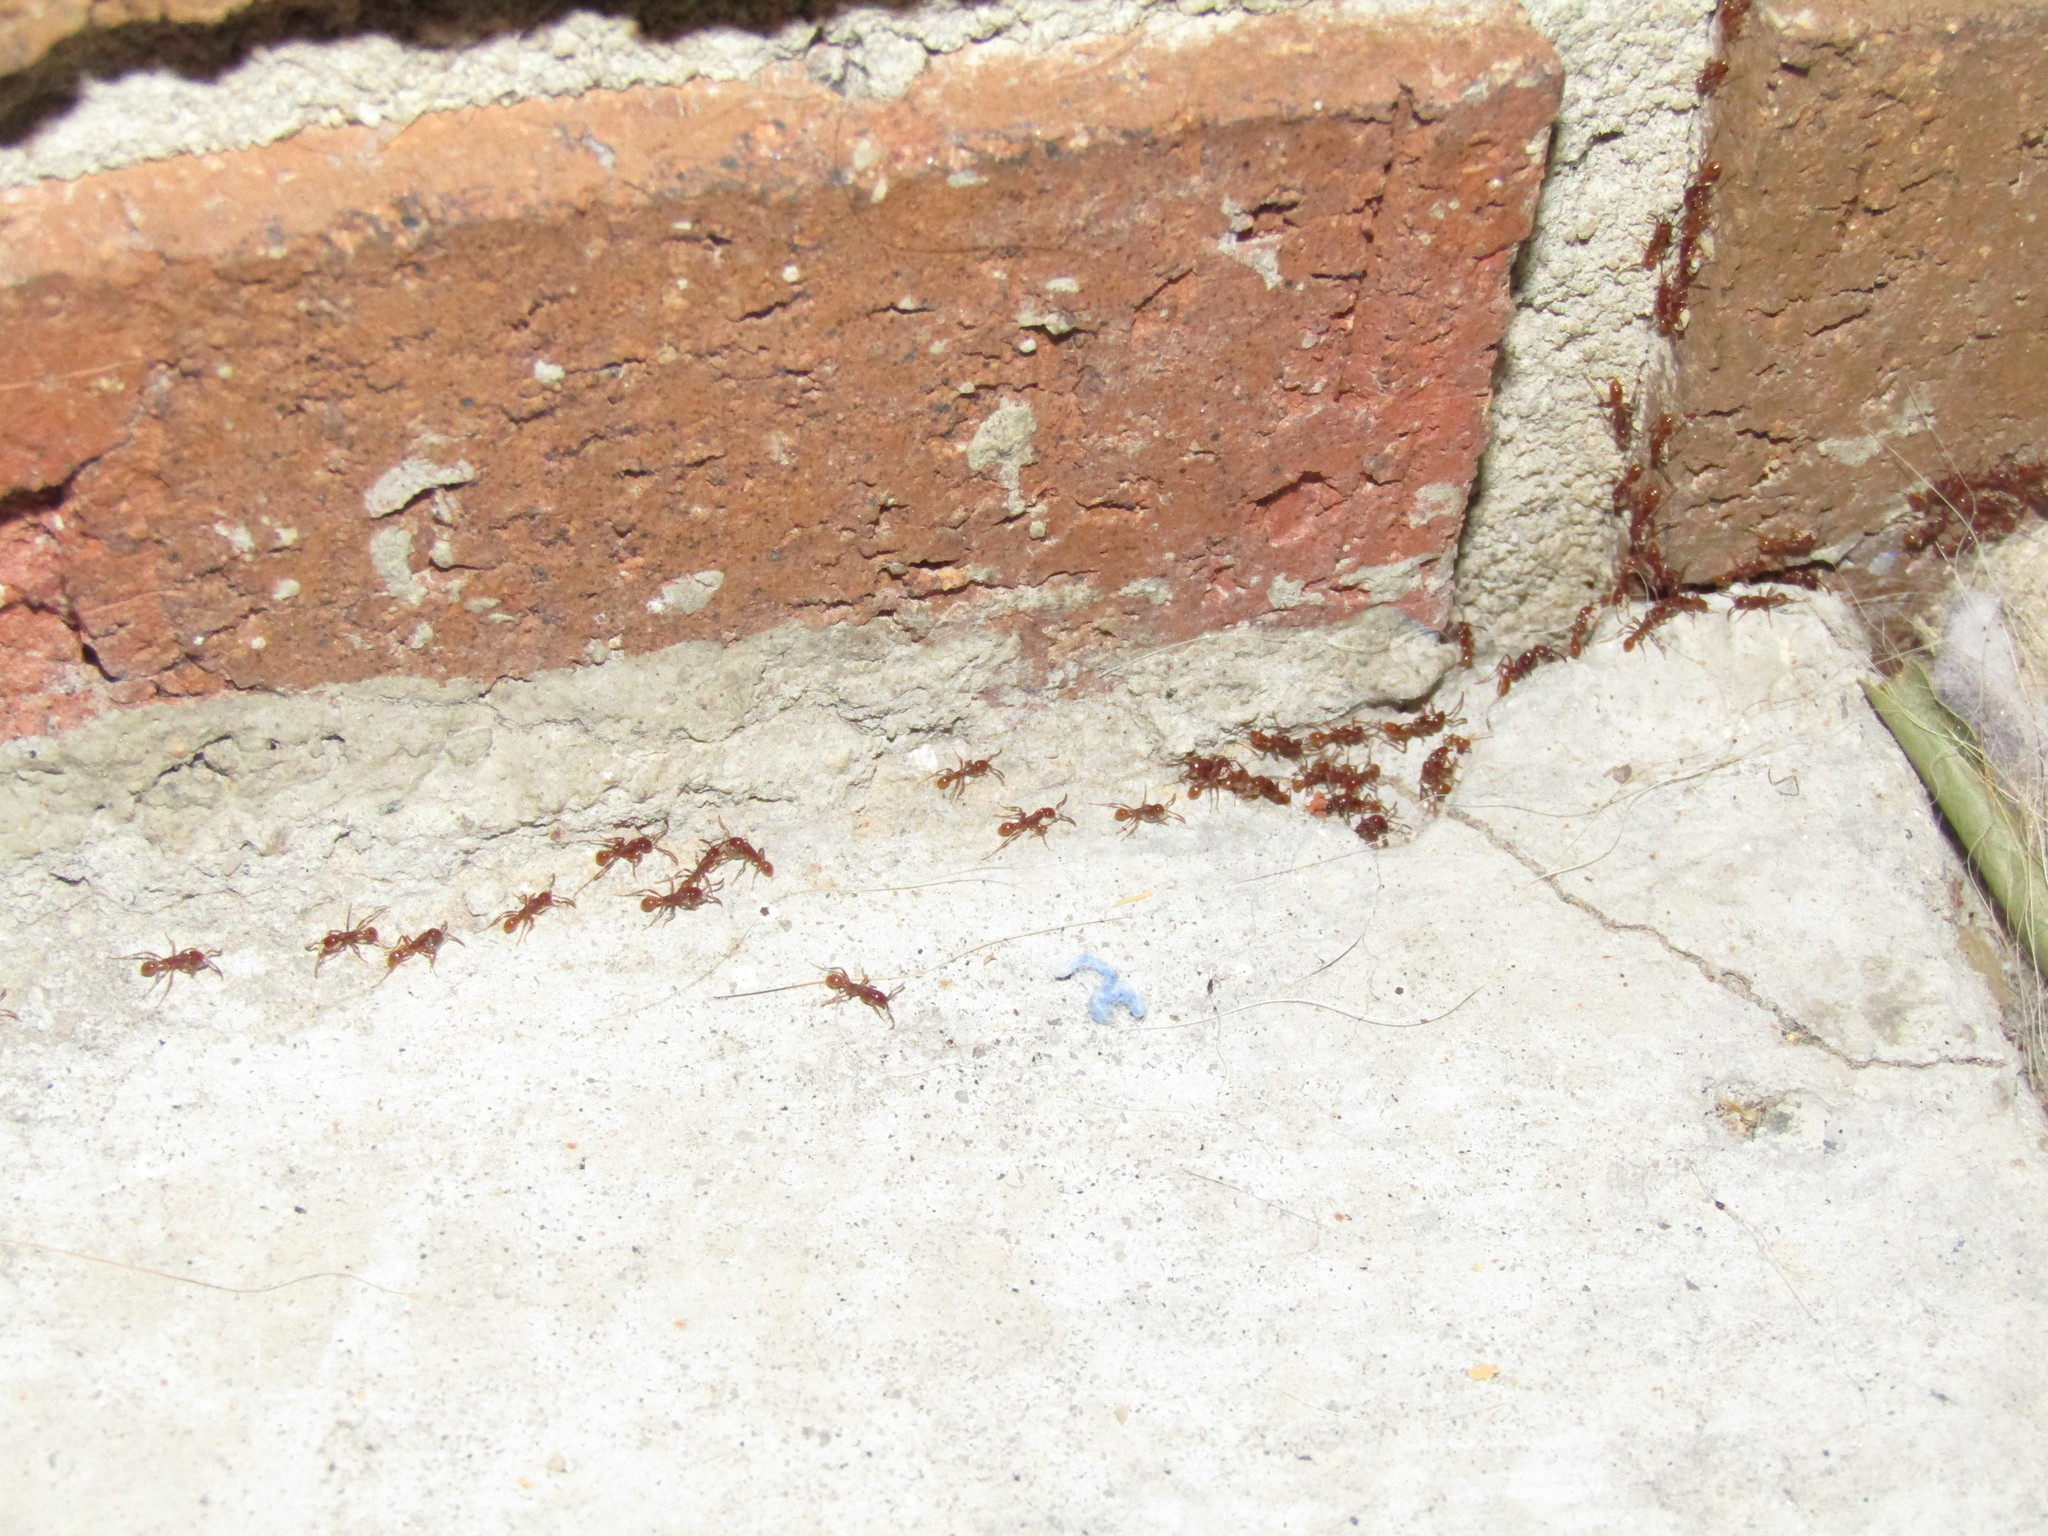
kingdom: Animalia
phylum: Arthropoda
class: Insecta
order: Hymenoptera
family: Formicidae
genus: Neivamyrmex
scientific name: Neivamyrmex opacithorax
